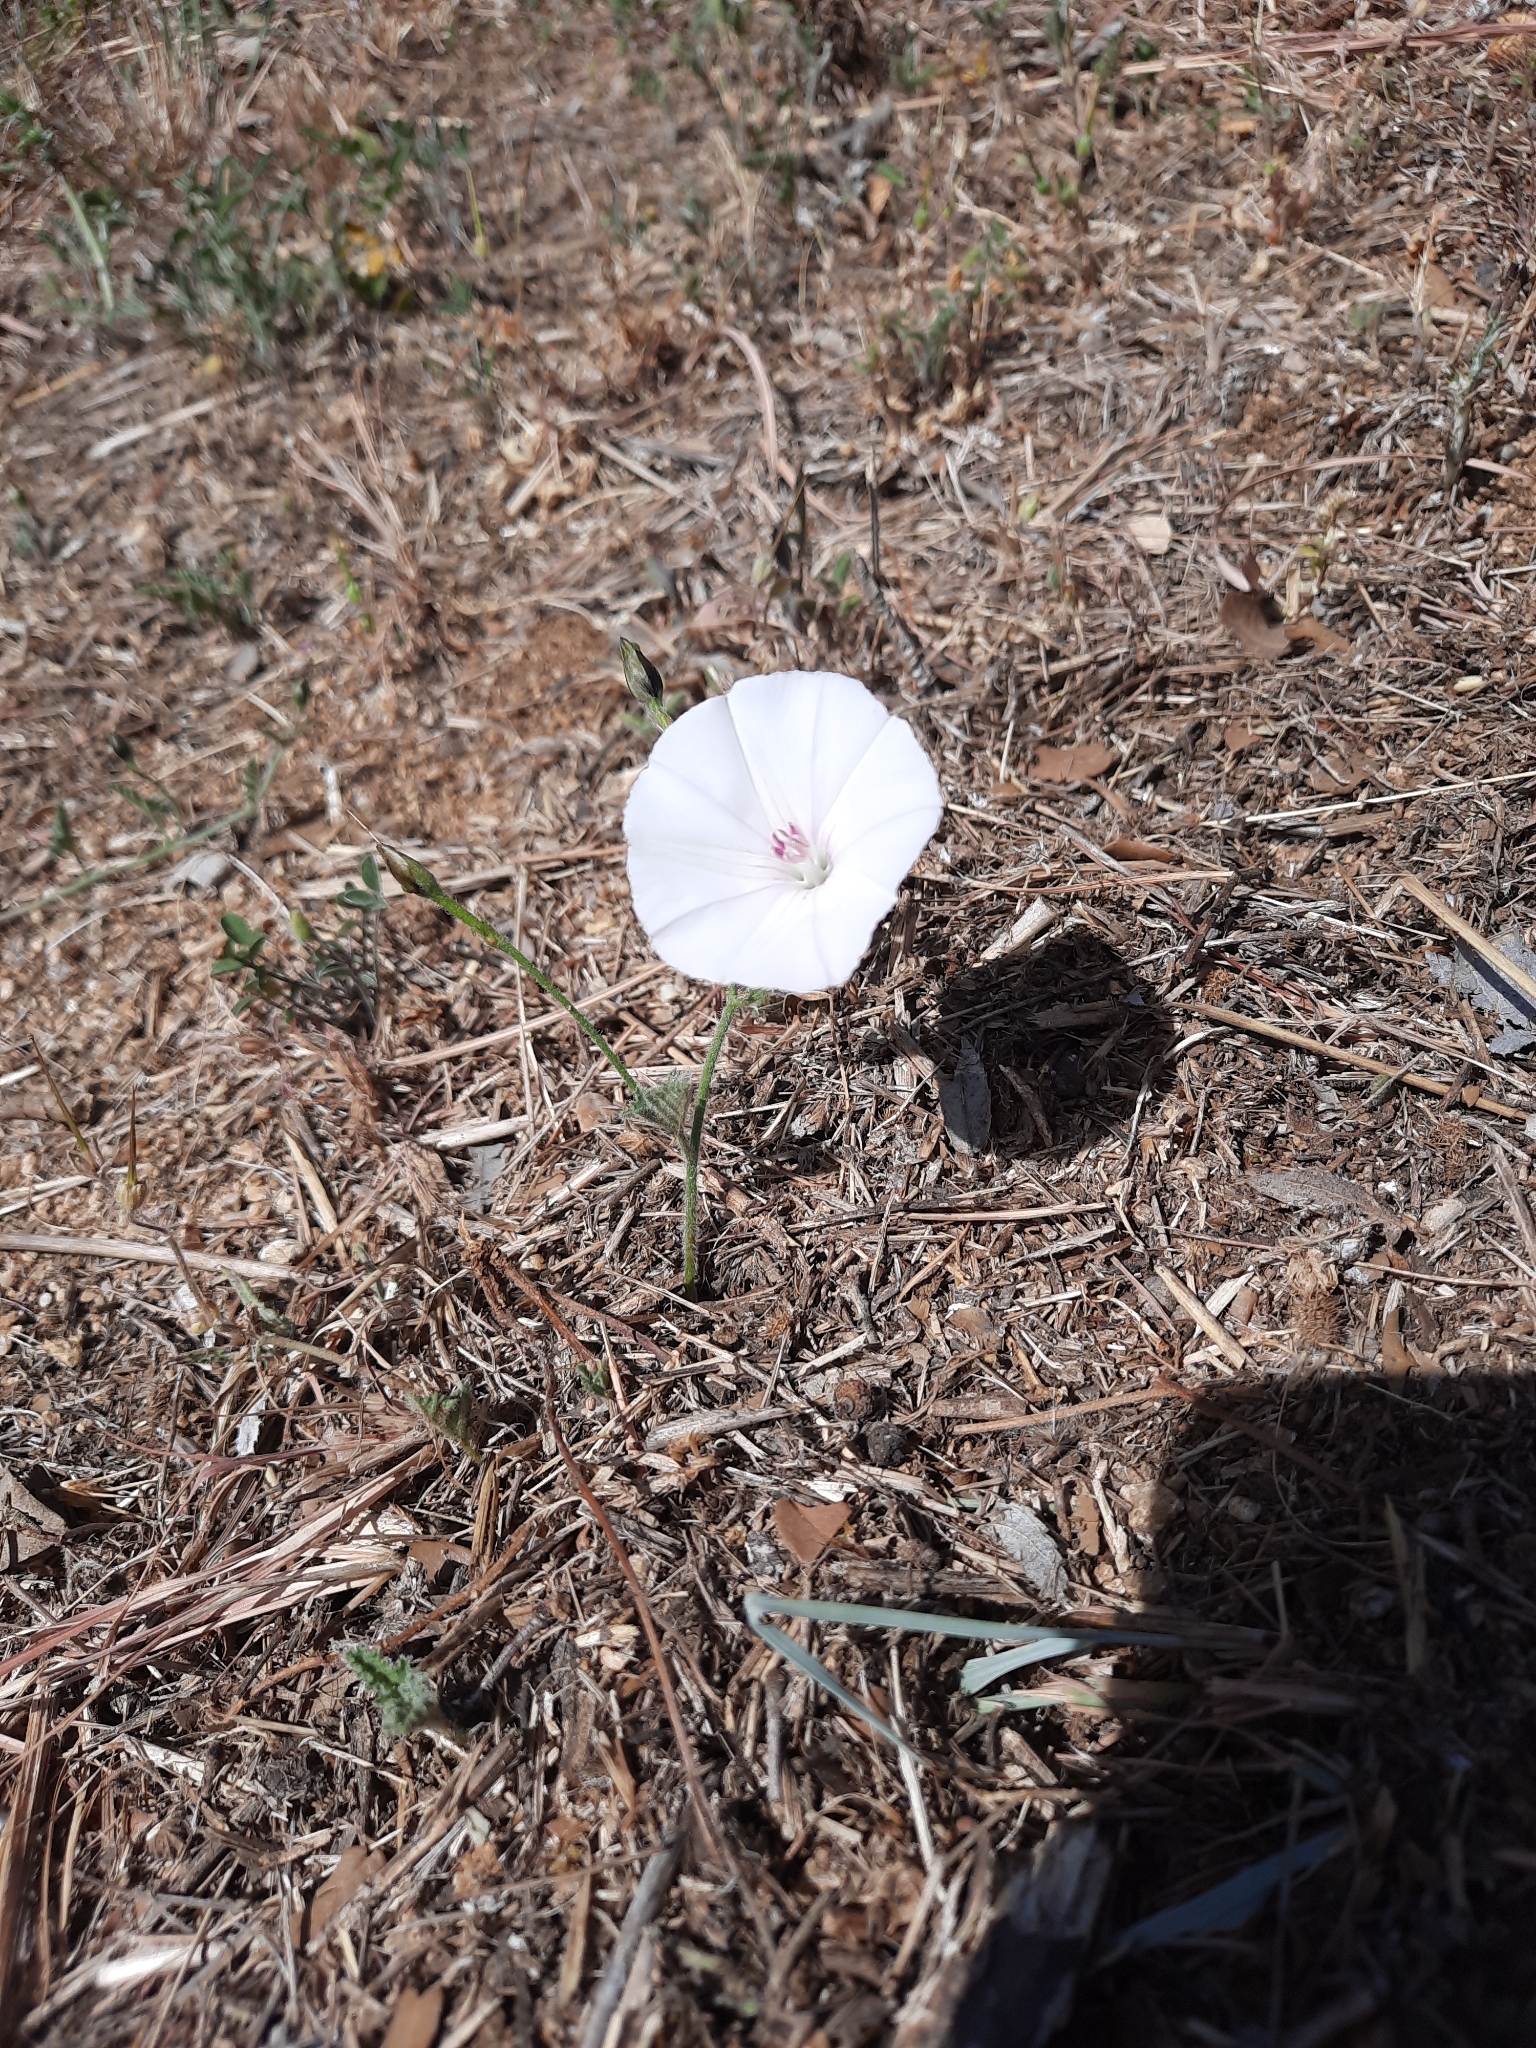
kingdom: Plantae
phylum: Tracheophyta
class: Magnoliopsida
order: Solanales
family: Convolvulaceae
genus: Convolvulus
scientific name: Convolvulus althaeoides
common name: Mallow bindweed
